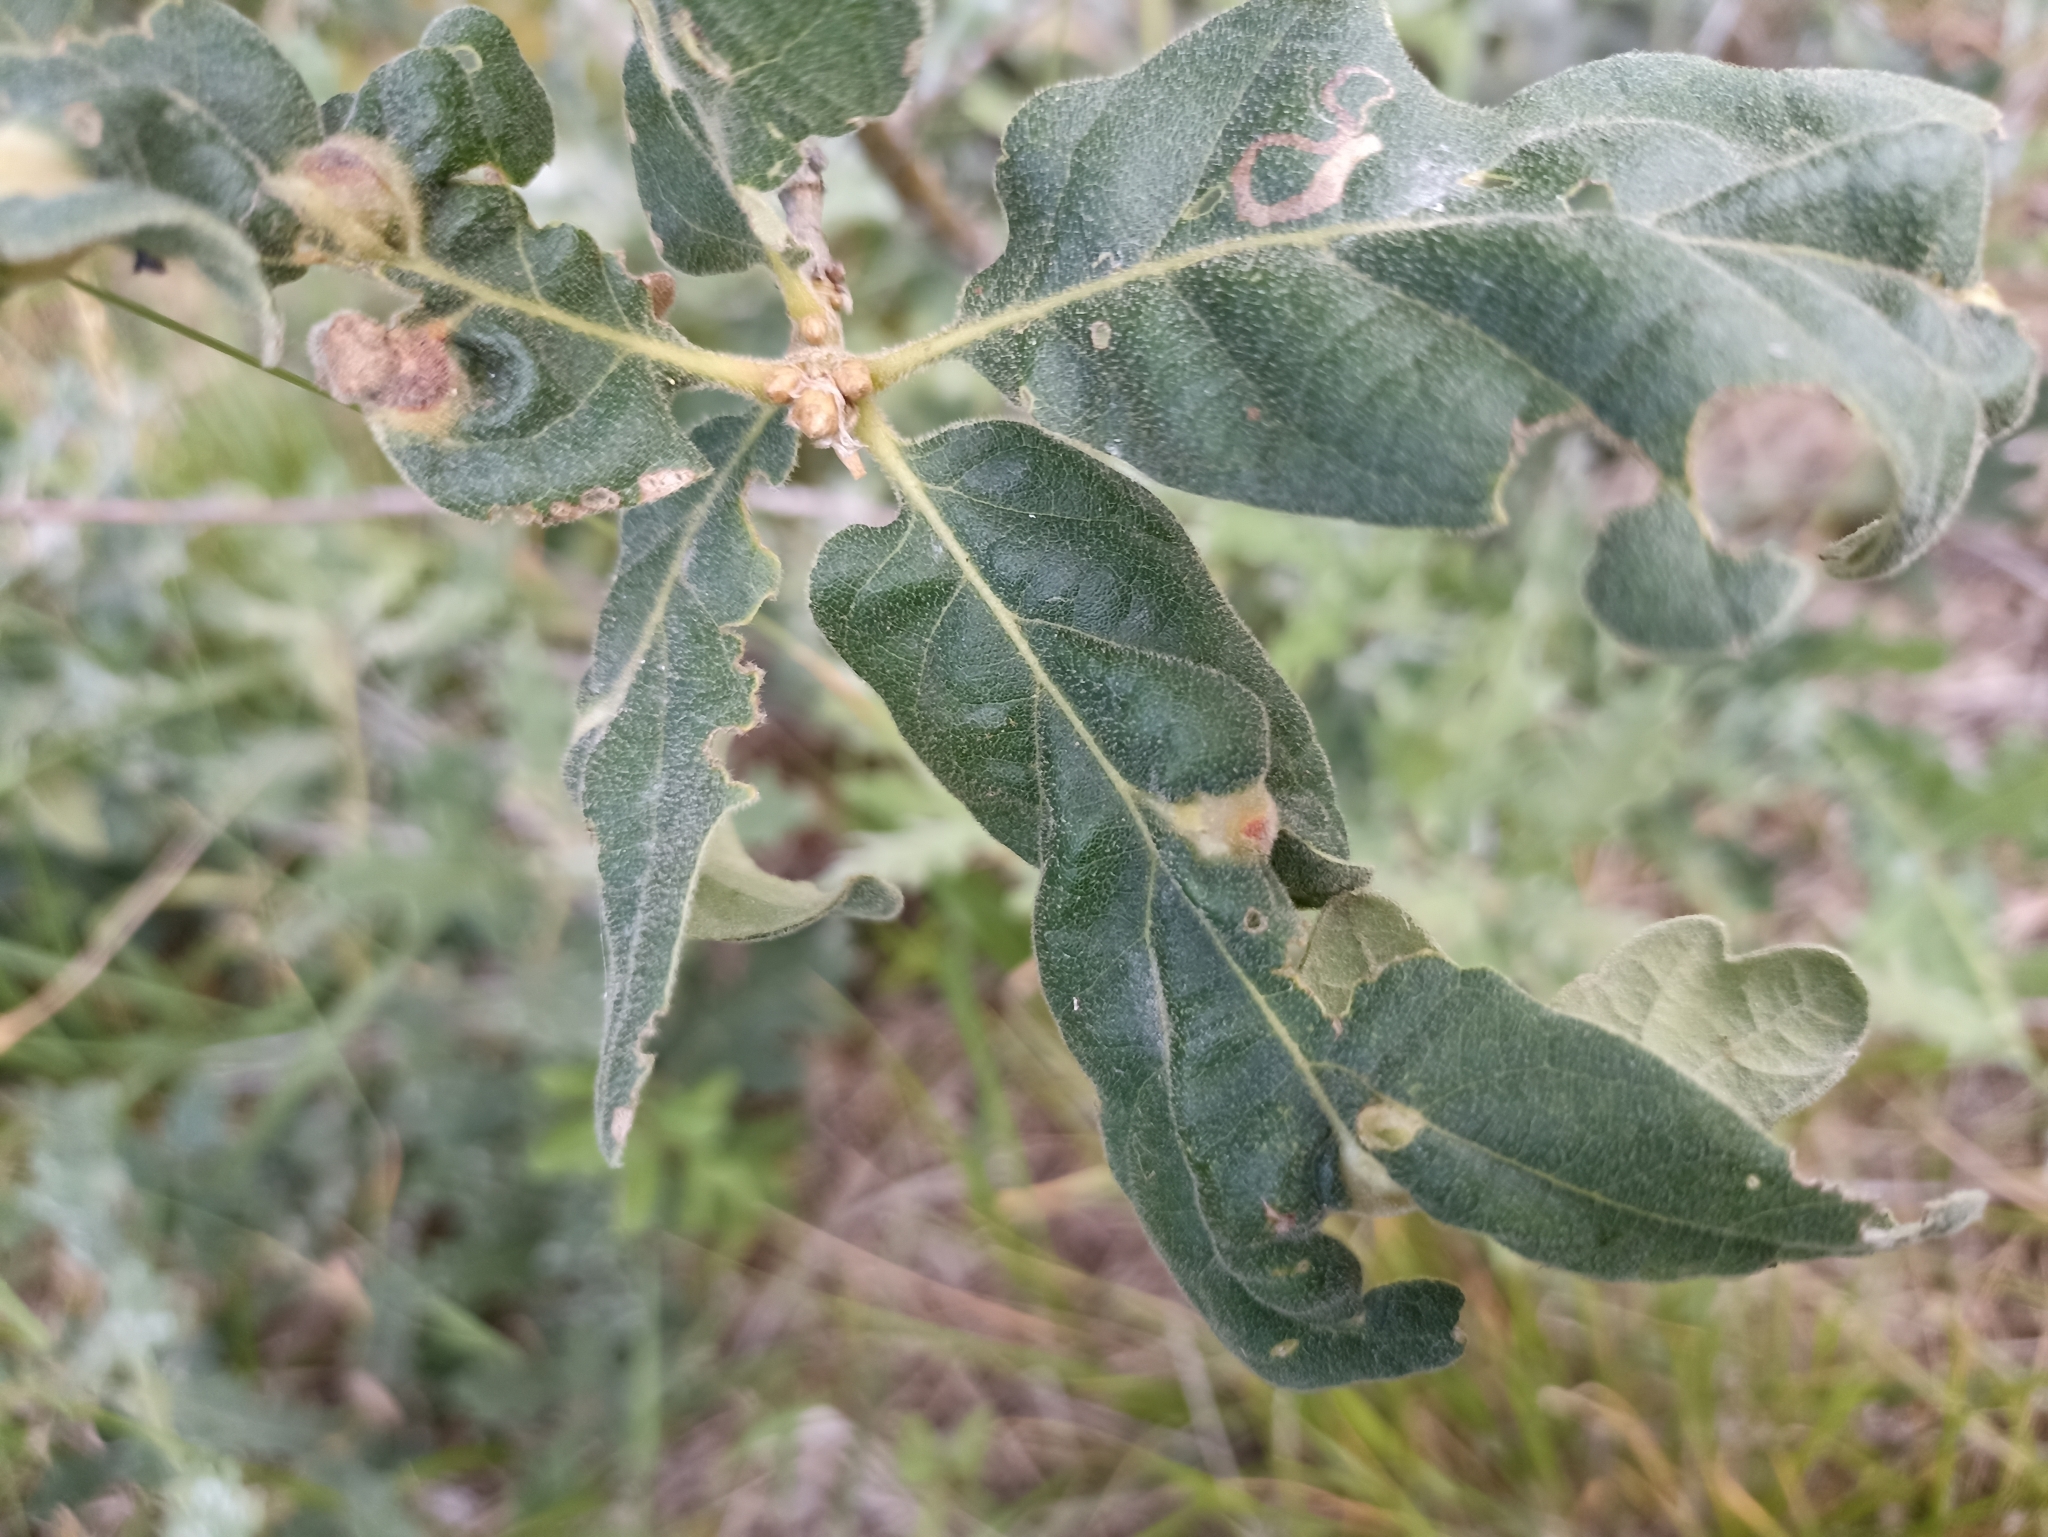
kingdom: Animalia
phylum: Arthropoda
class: Insecta
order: Hymenoptera
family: Cynipidae
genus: Andricus
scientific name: Andricus curvator
